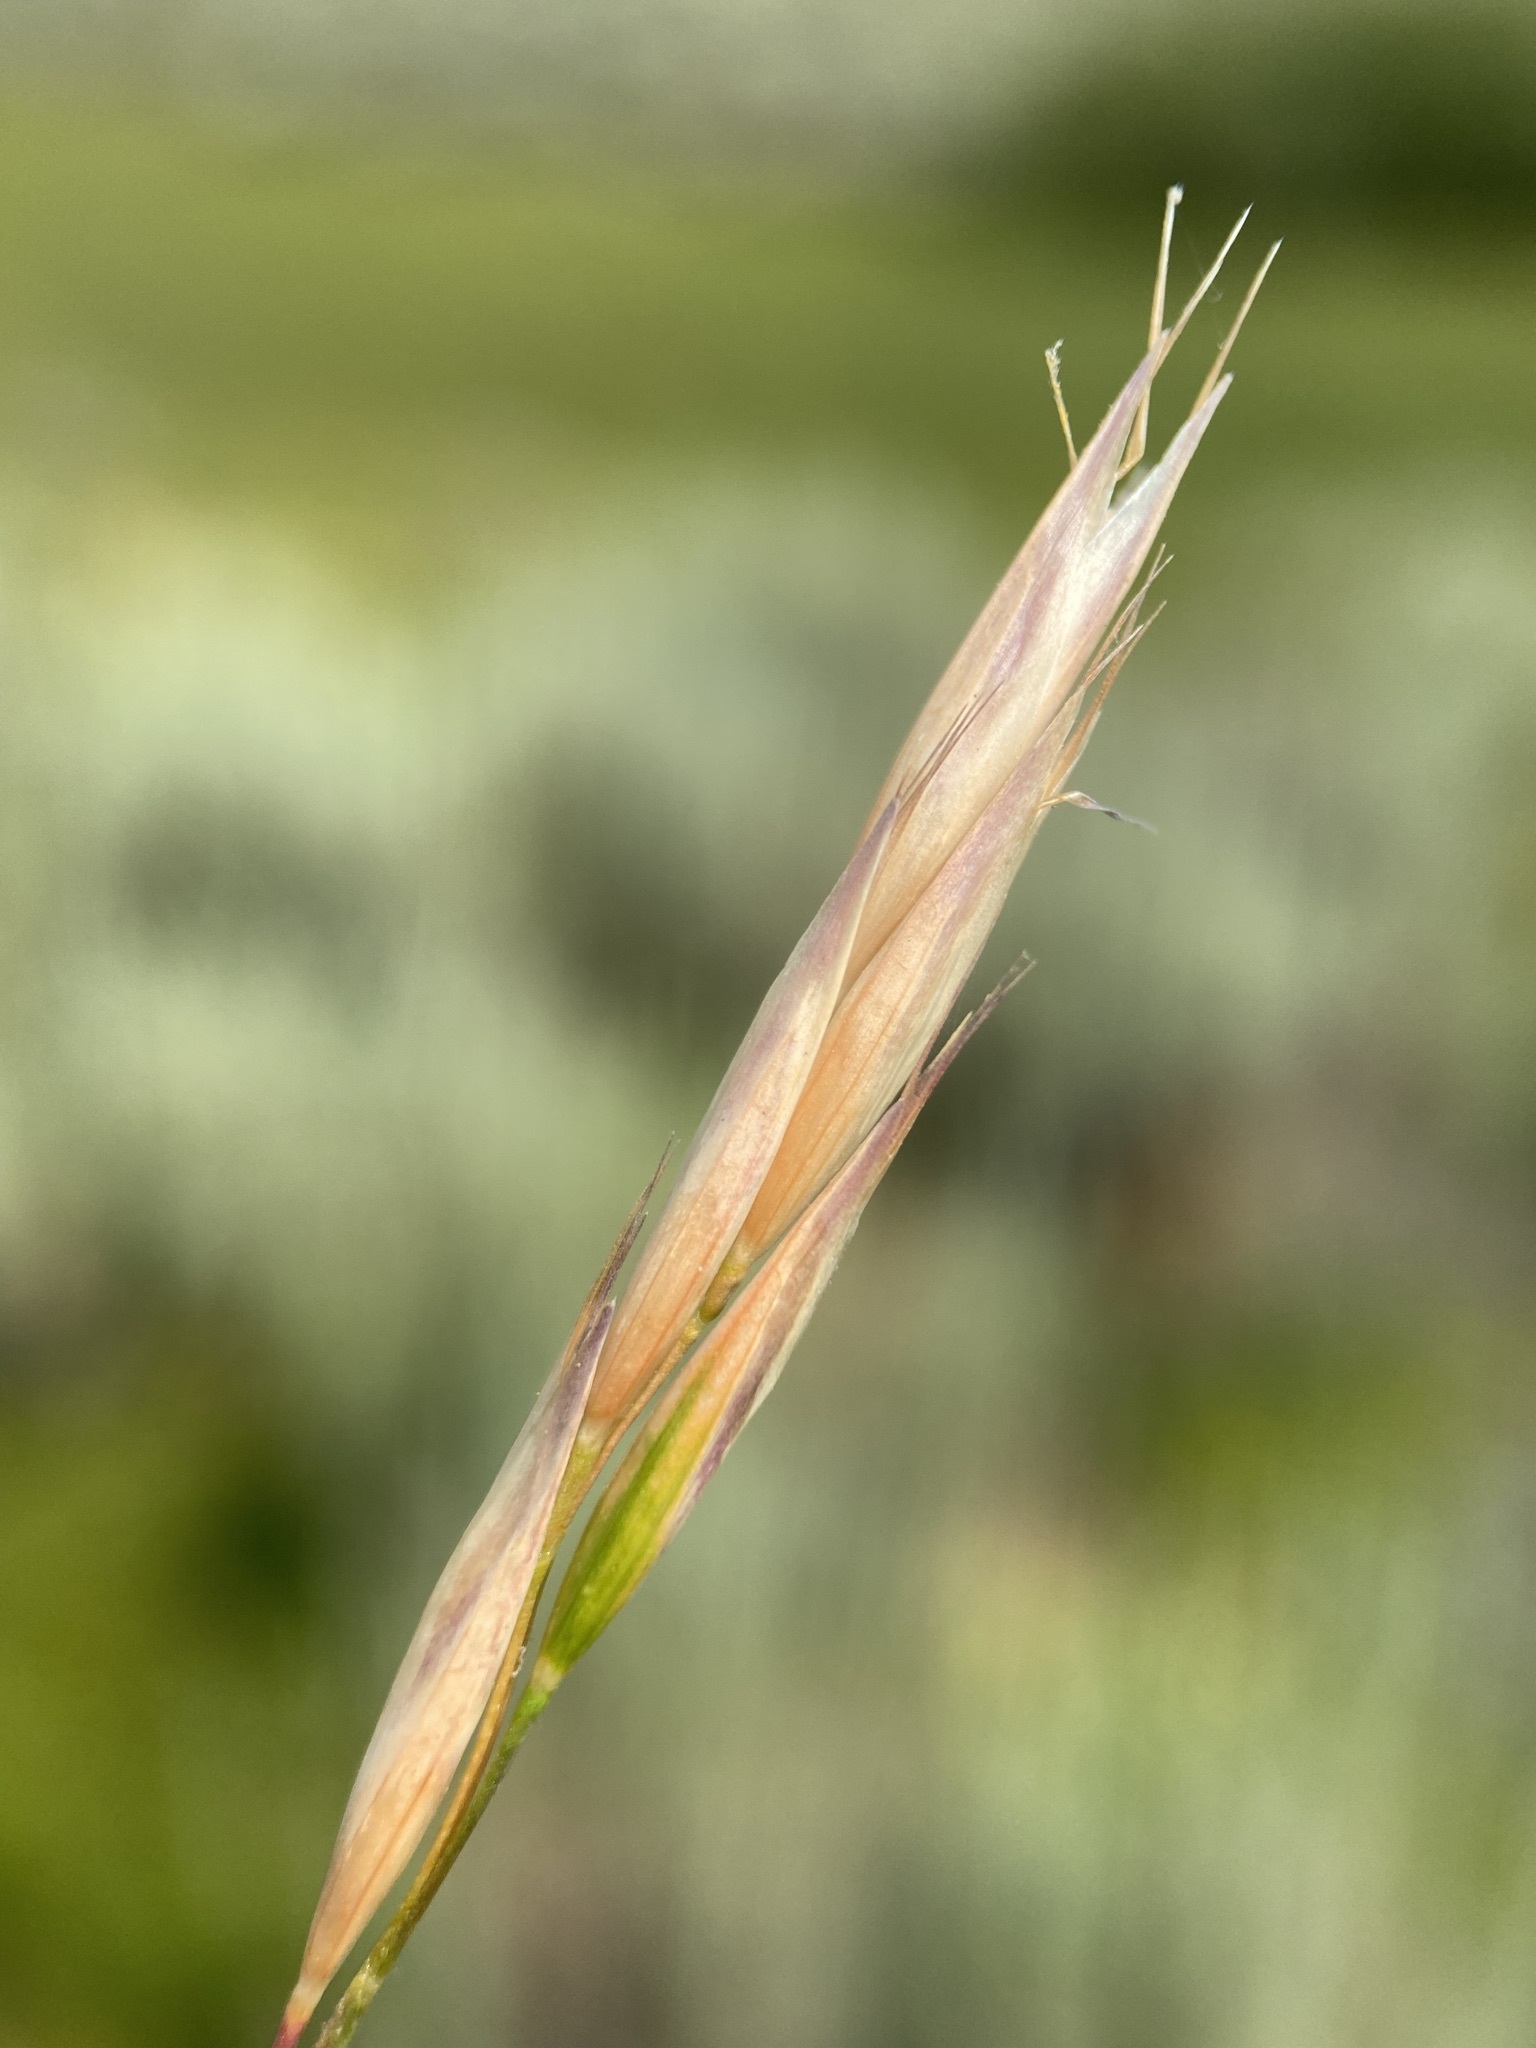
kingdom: Plantae
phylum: Tracheophyta
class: Liliopsida
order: Poales
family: Poaceae
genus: Danthonia
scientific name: Danthonia intermedia
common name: Intermediate oat grass
